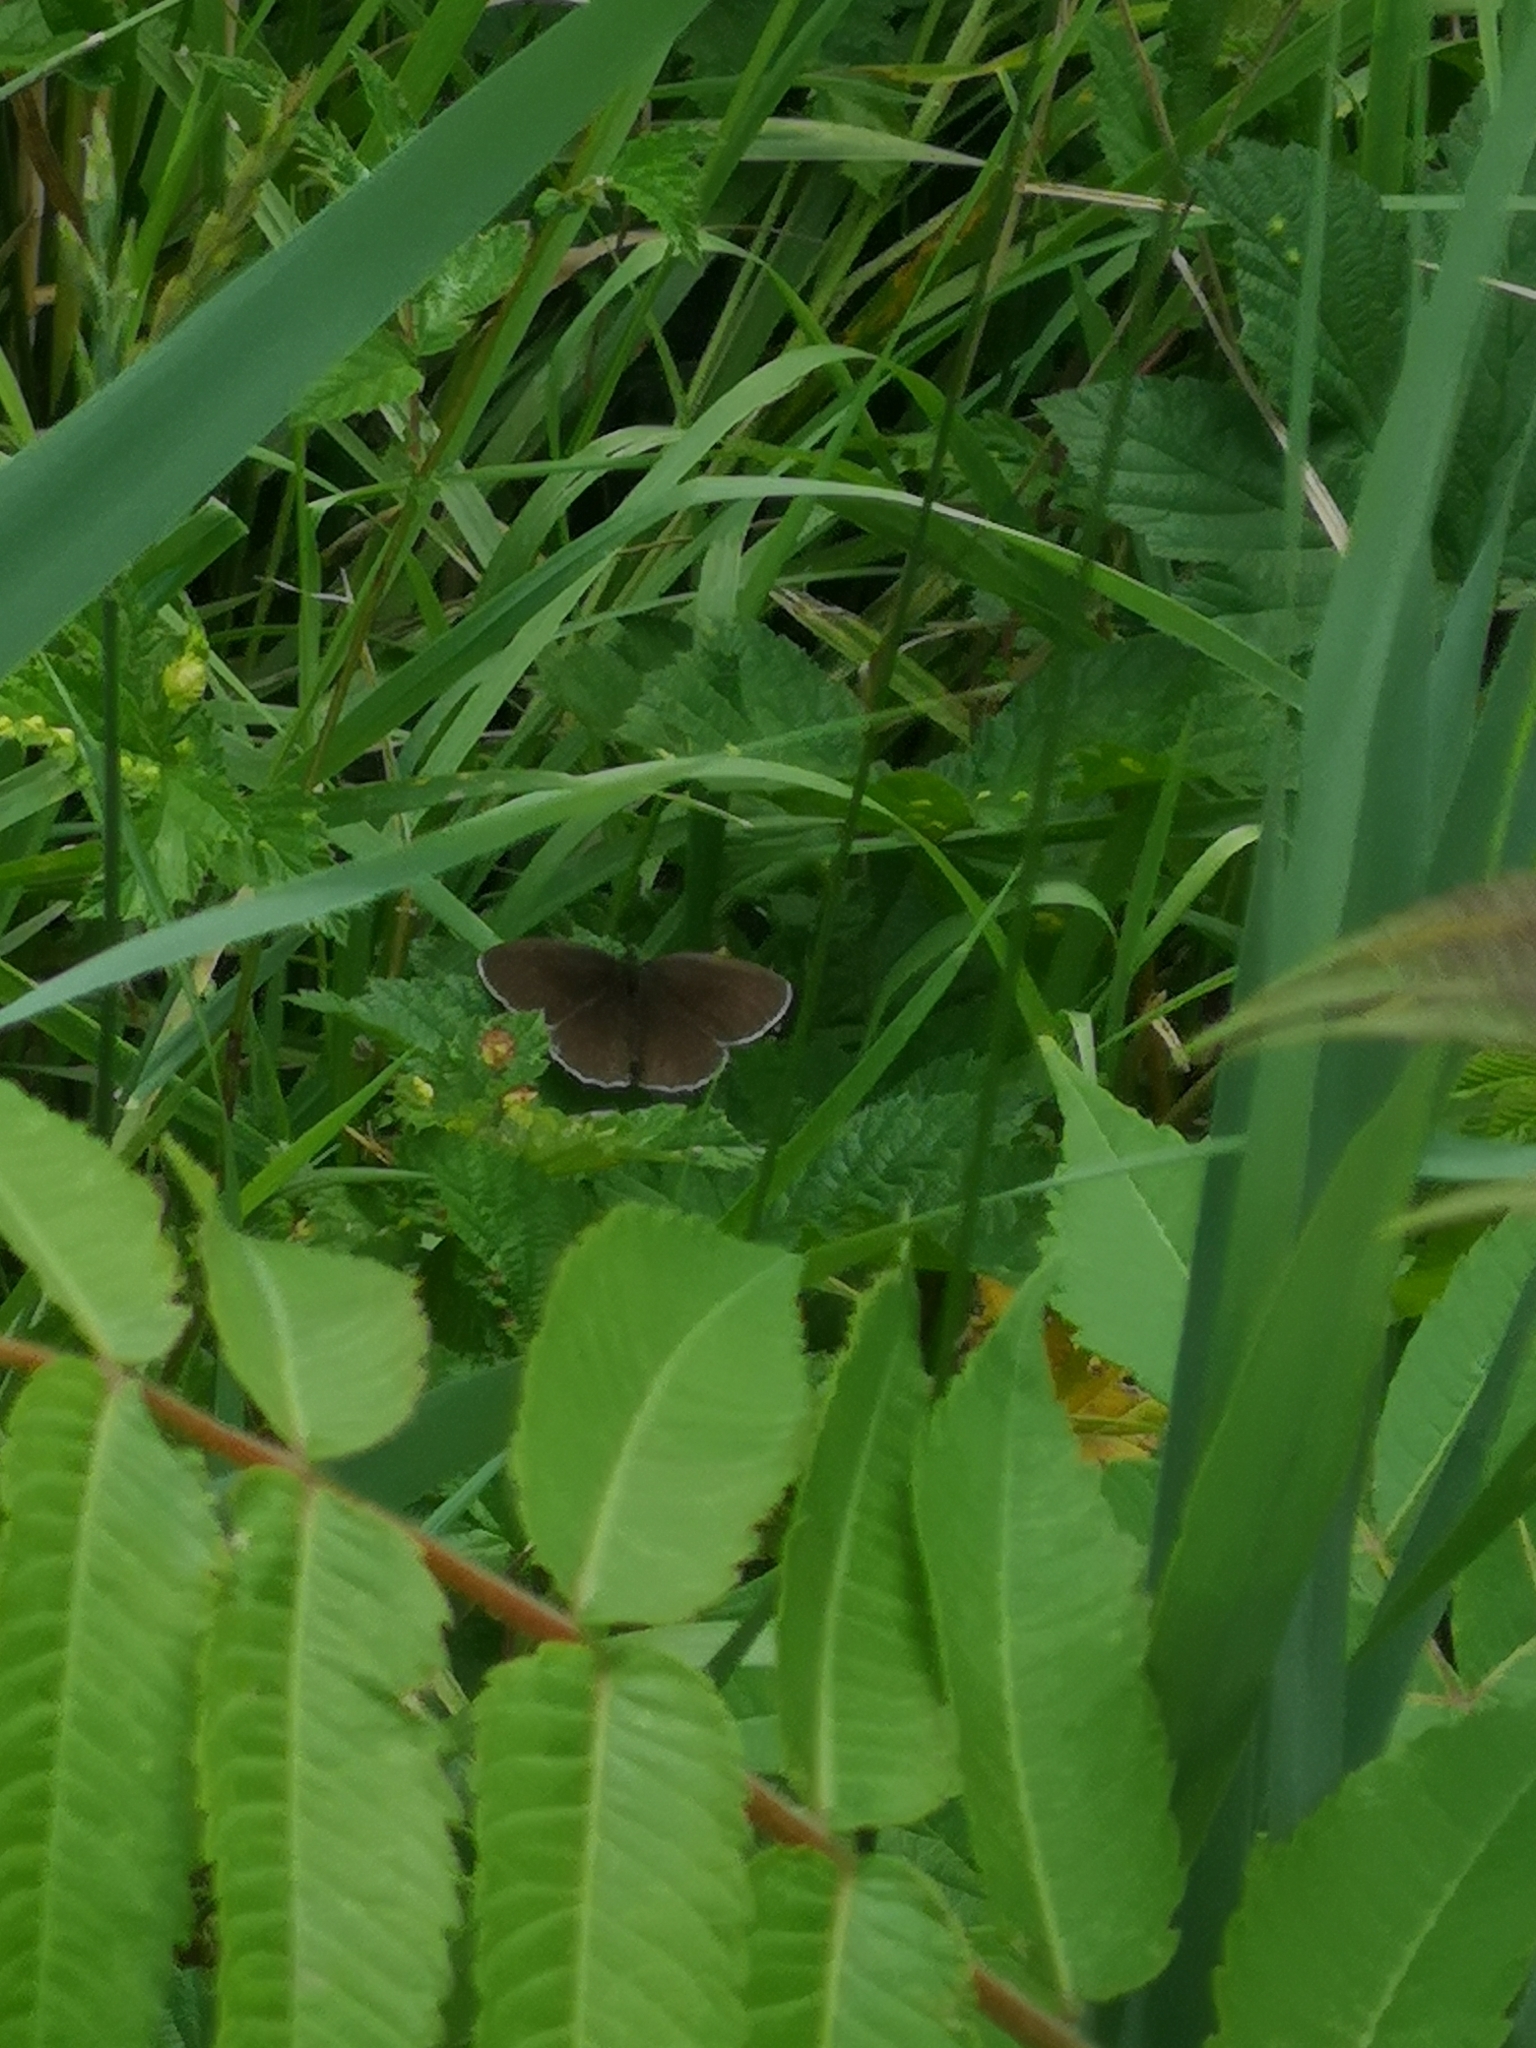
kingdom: Animalia
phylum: Arthropoda
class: Insecta
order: Lepidoptera
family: Nymphalidae
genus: Aphantopus
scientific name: Aphantopus hyperantus
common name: Ringlet
